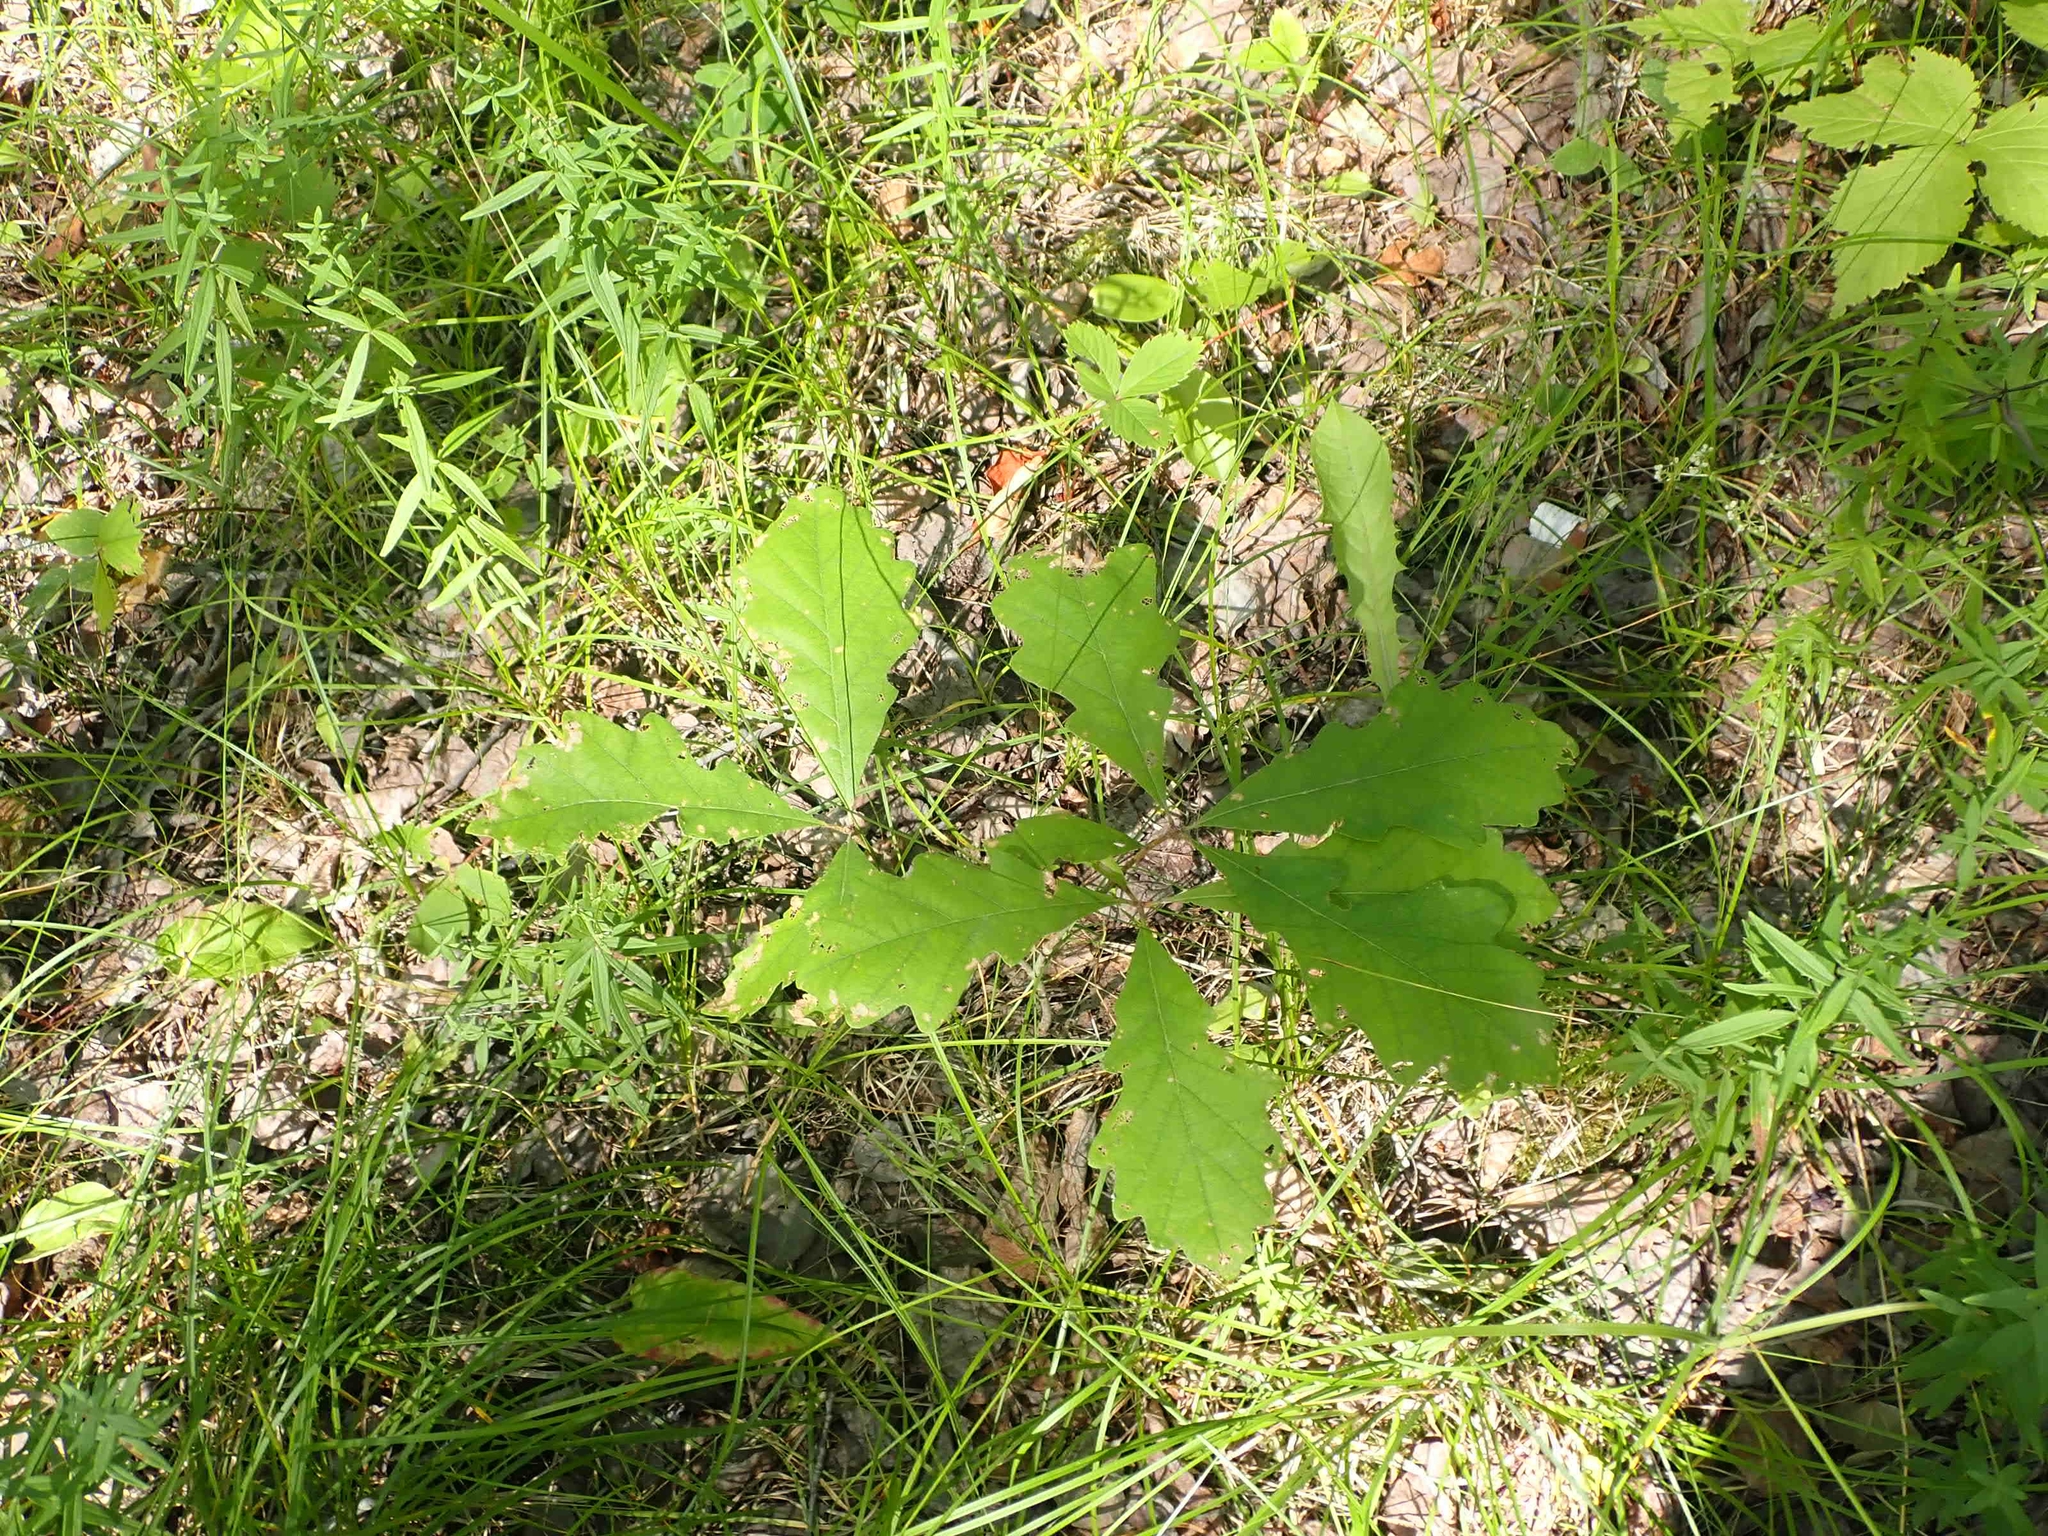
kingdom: Plantae
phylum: Tracheophyta
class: Magnoliopsida
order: Fagales
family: Fagaceae
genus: Quercus
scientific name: Quercus macrocarpa
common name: Bur oak
